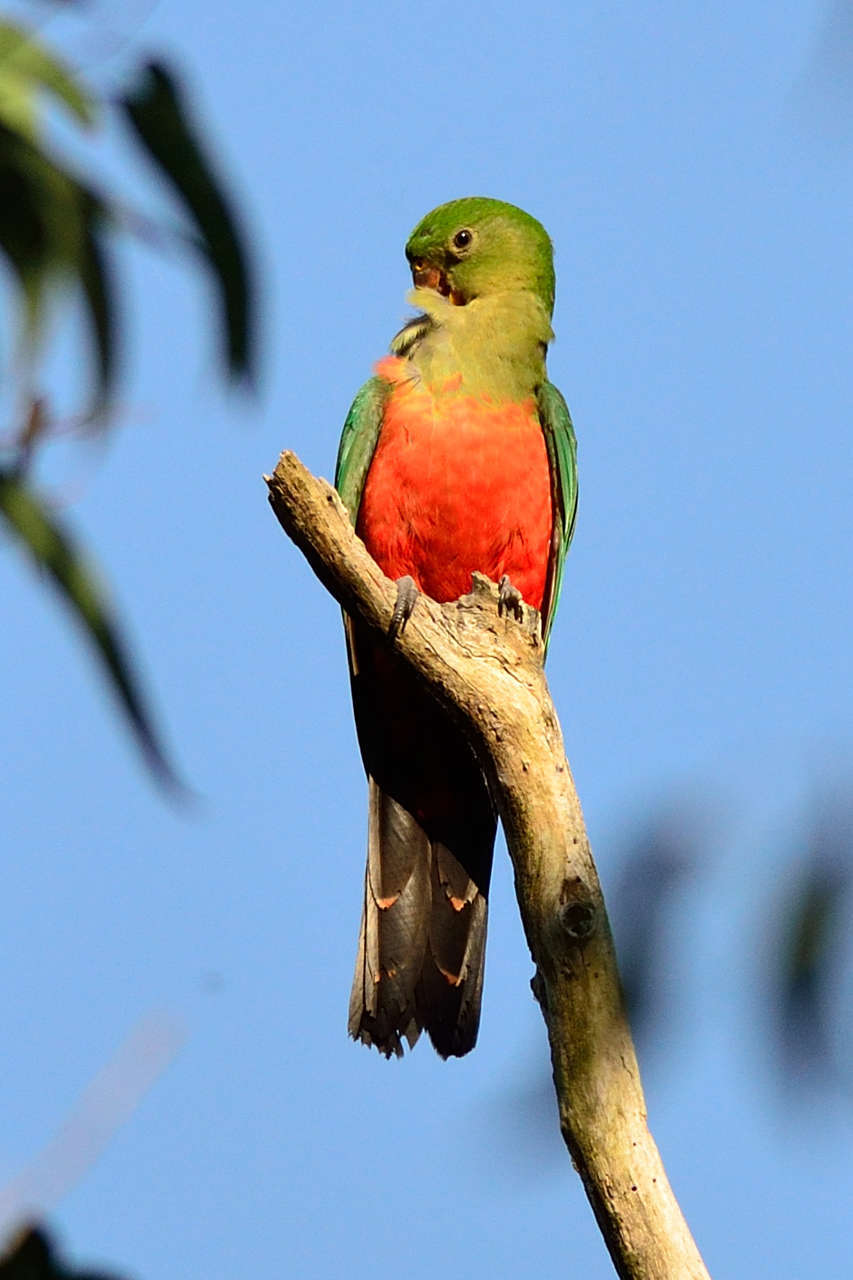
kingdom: Animalia
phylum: Chordata
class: Aves
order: Psittaciformes
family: Psittacidae
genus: Alisterus
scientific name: Alisterus scapularis
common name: Australian king parrot
